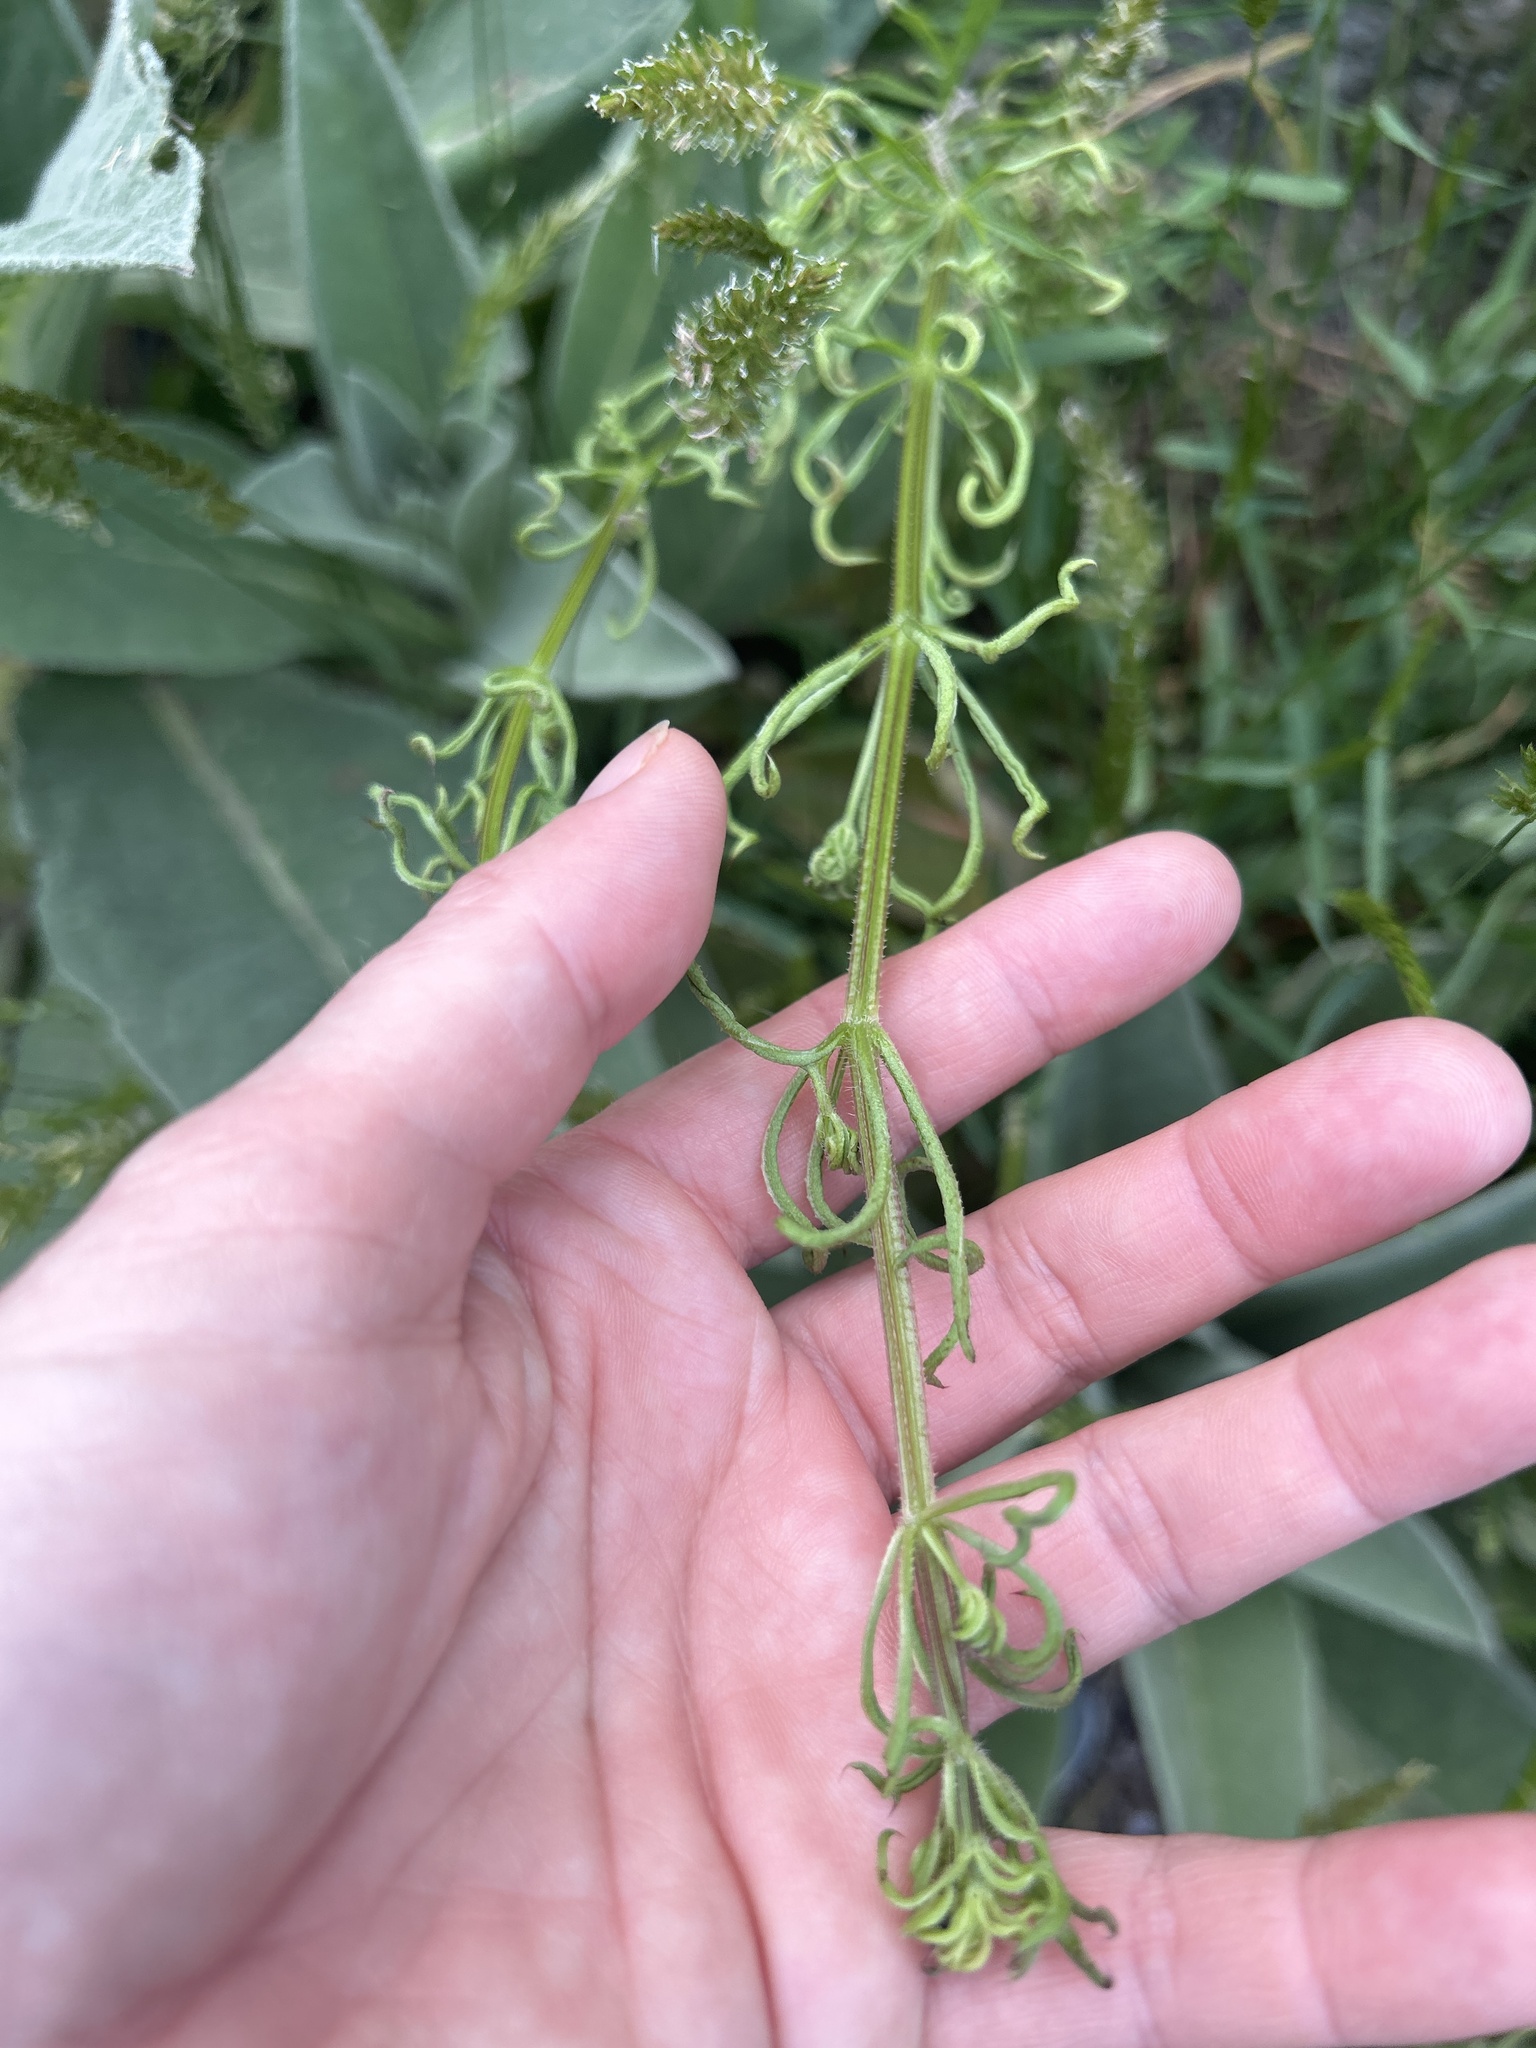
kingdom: Plantae
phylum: Tracheophyta
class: Magnoliopsida
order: Gentianales
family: Rubiaceae
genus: Galium
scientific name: Galium aparine
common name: Cleavers
